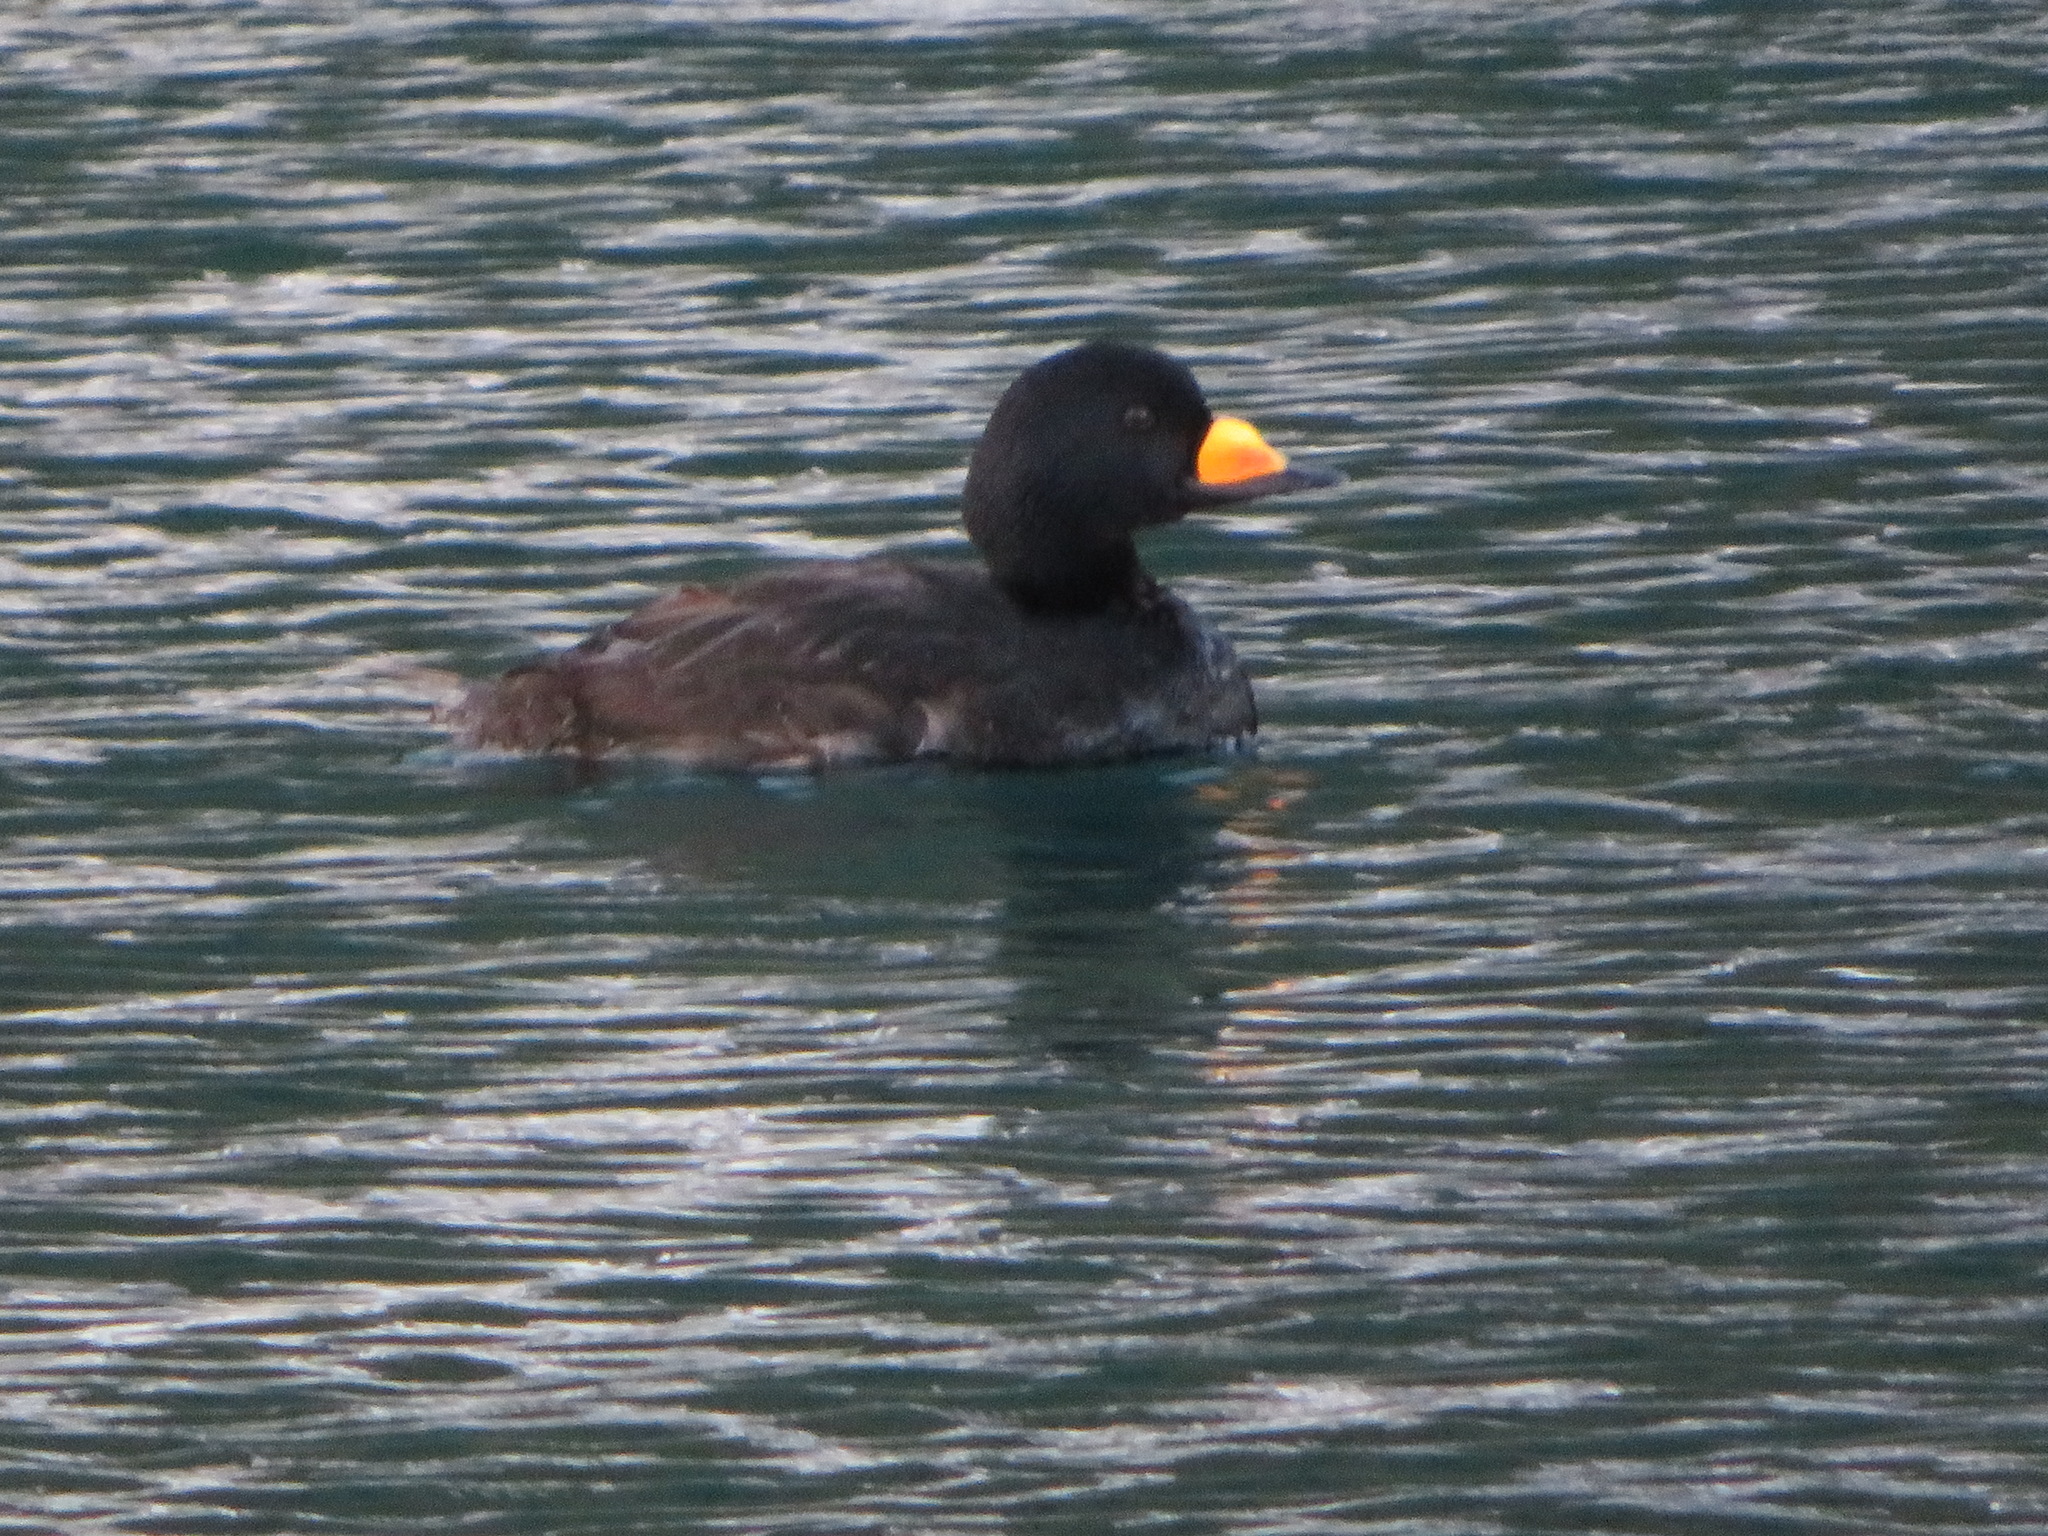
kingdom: Animalia
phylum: Chordata
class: Aves
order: Anseriformes
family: Anatidae
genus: Melanitta
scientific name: Melanitta americana
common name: Black scoter
